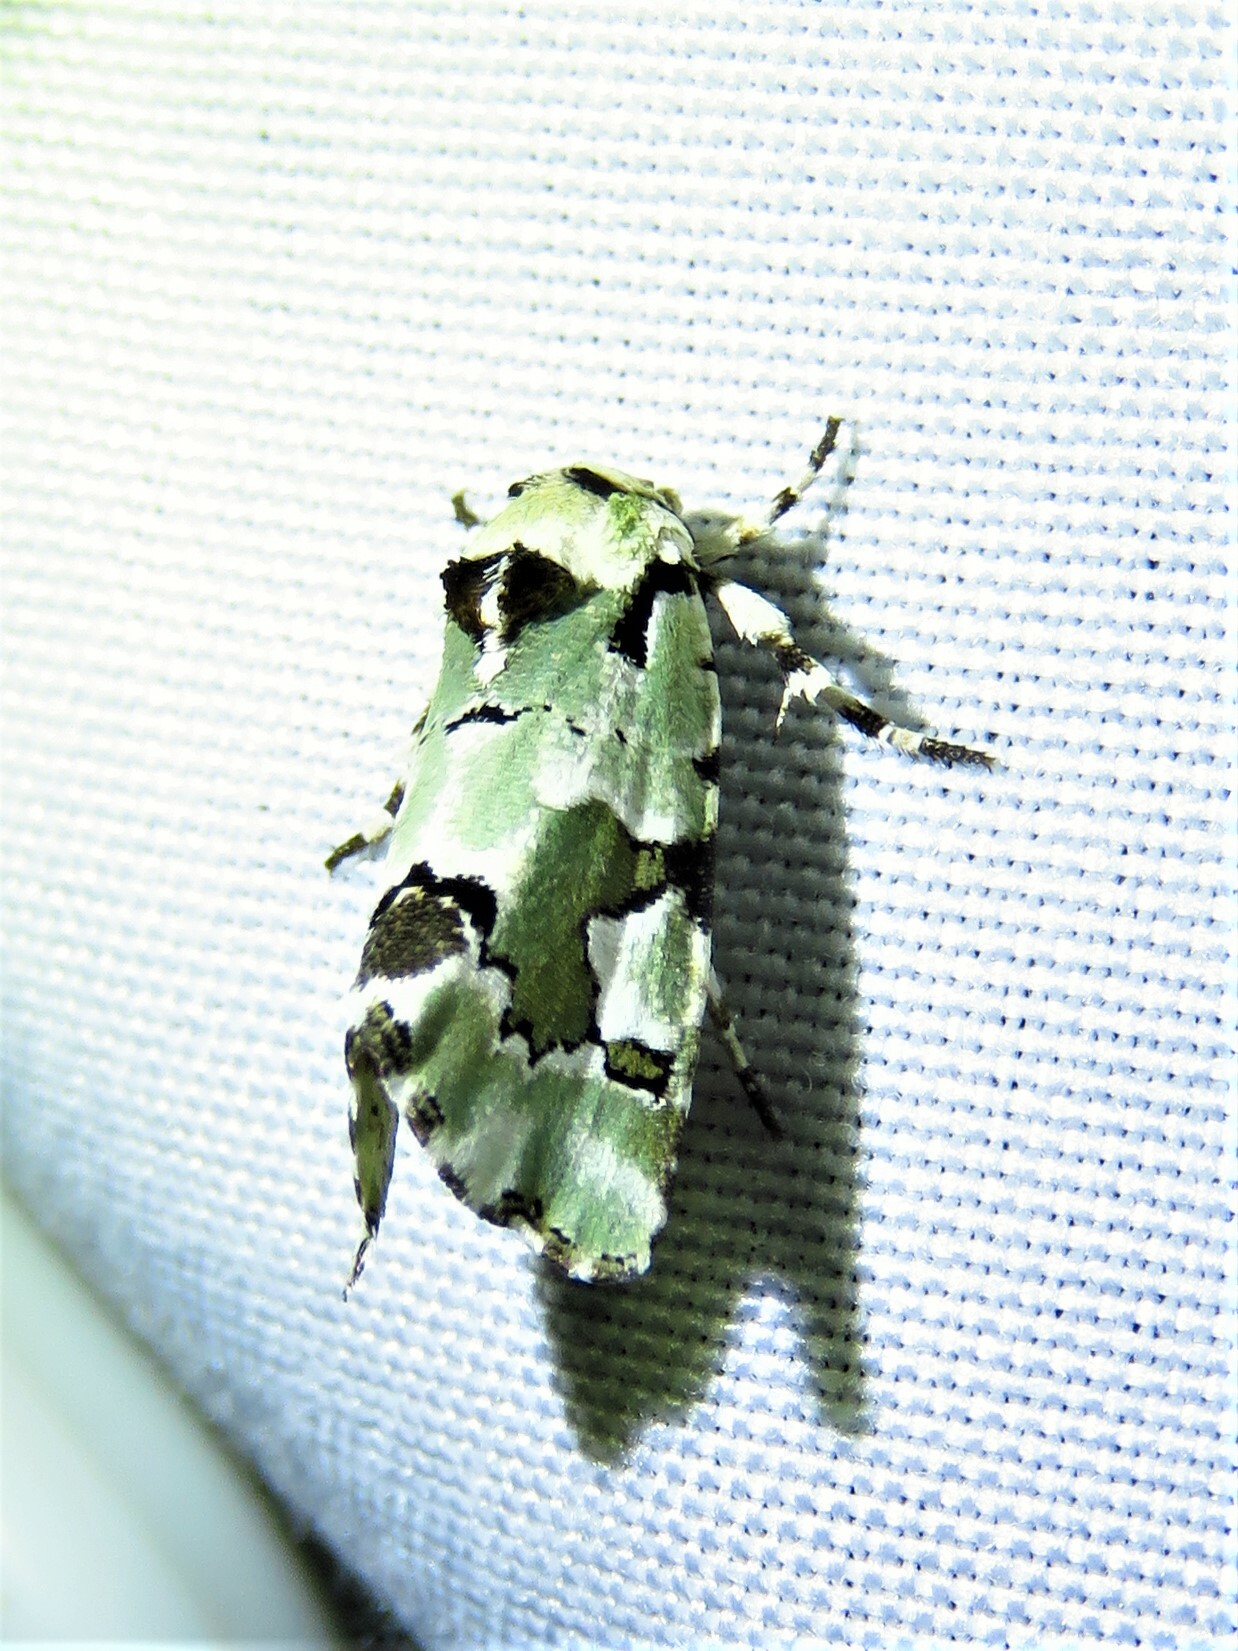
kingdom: Animalia
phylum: Arthropoda
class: Insecta
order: Lepidoptera
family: Noctuidae
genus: Emarginea
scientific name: Emarginea percara
